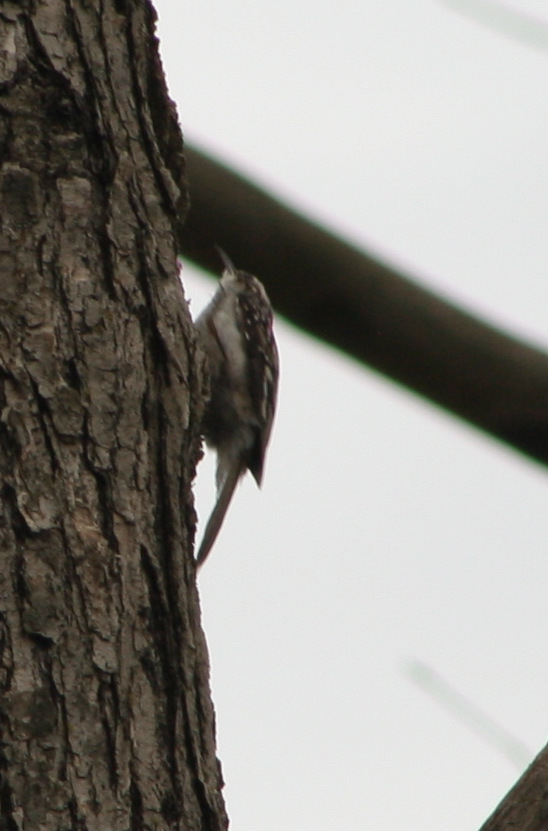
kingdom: Animalia
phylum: Chordata
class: Aves
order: Passeriformes
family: Certhiidae
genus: Certhia
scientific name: Certhia americana
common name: Brown creeper
